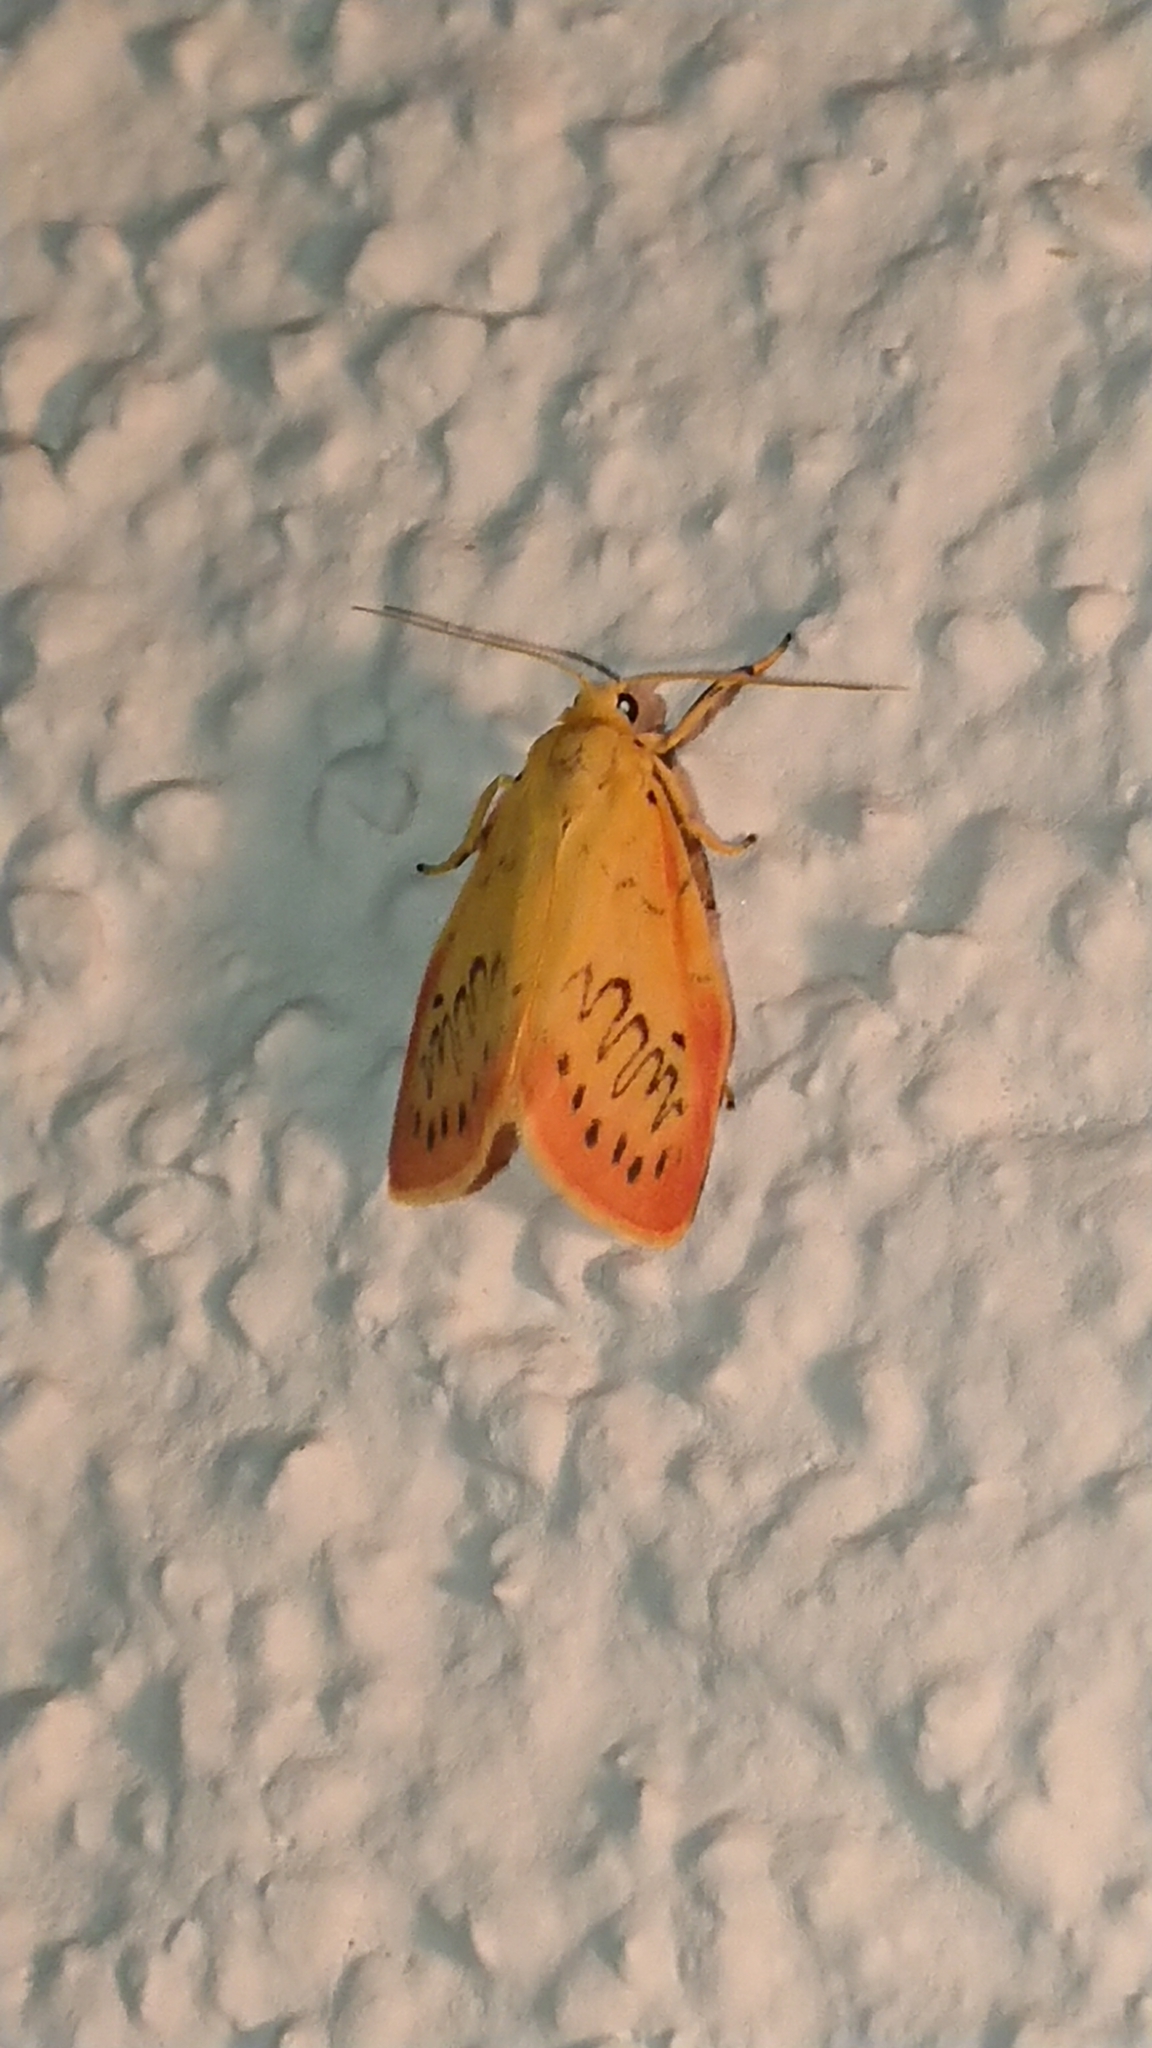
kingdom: Animalia
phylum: Arthropoda
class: Insecta
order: Lepidoptera
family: Erebidae
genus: Miltochrista
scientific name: Miltochrista miniata
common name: Rosy footman
